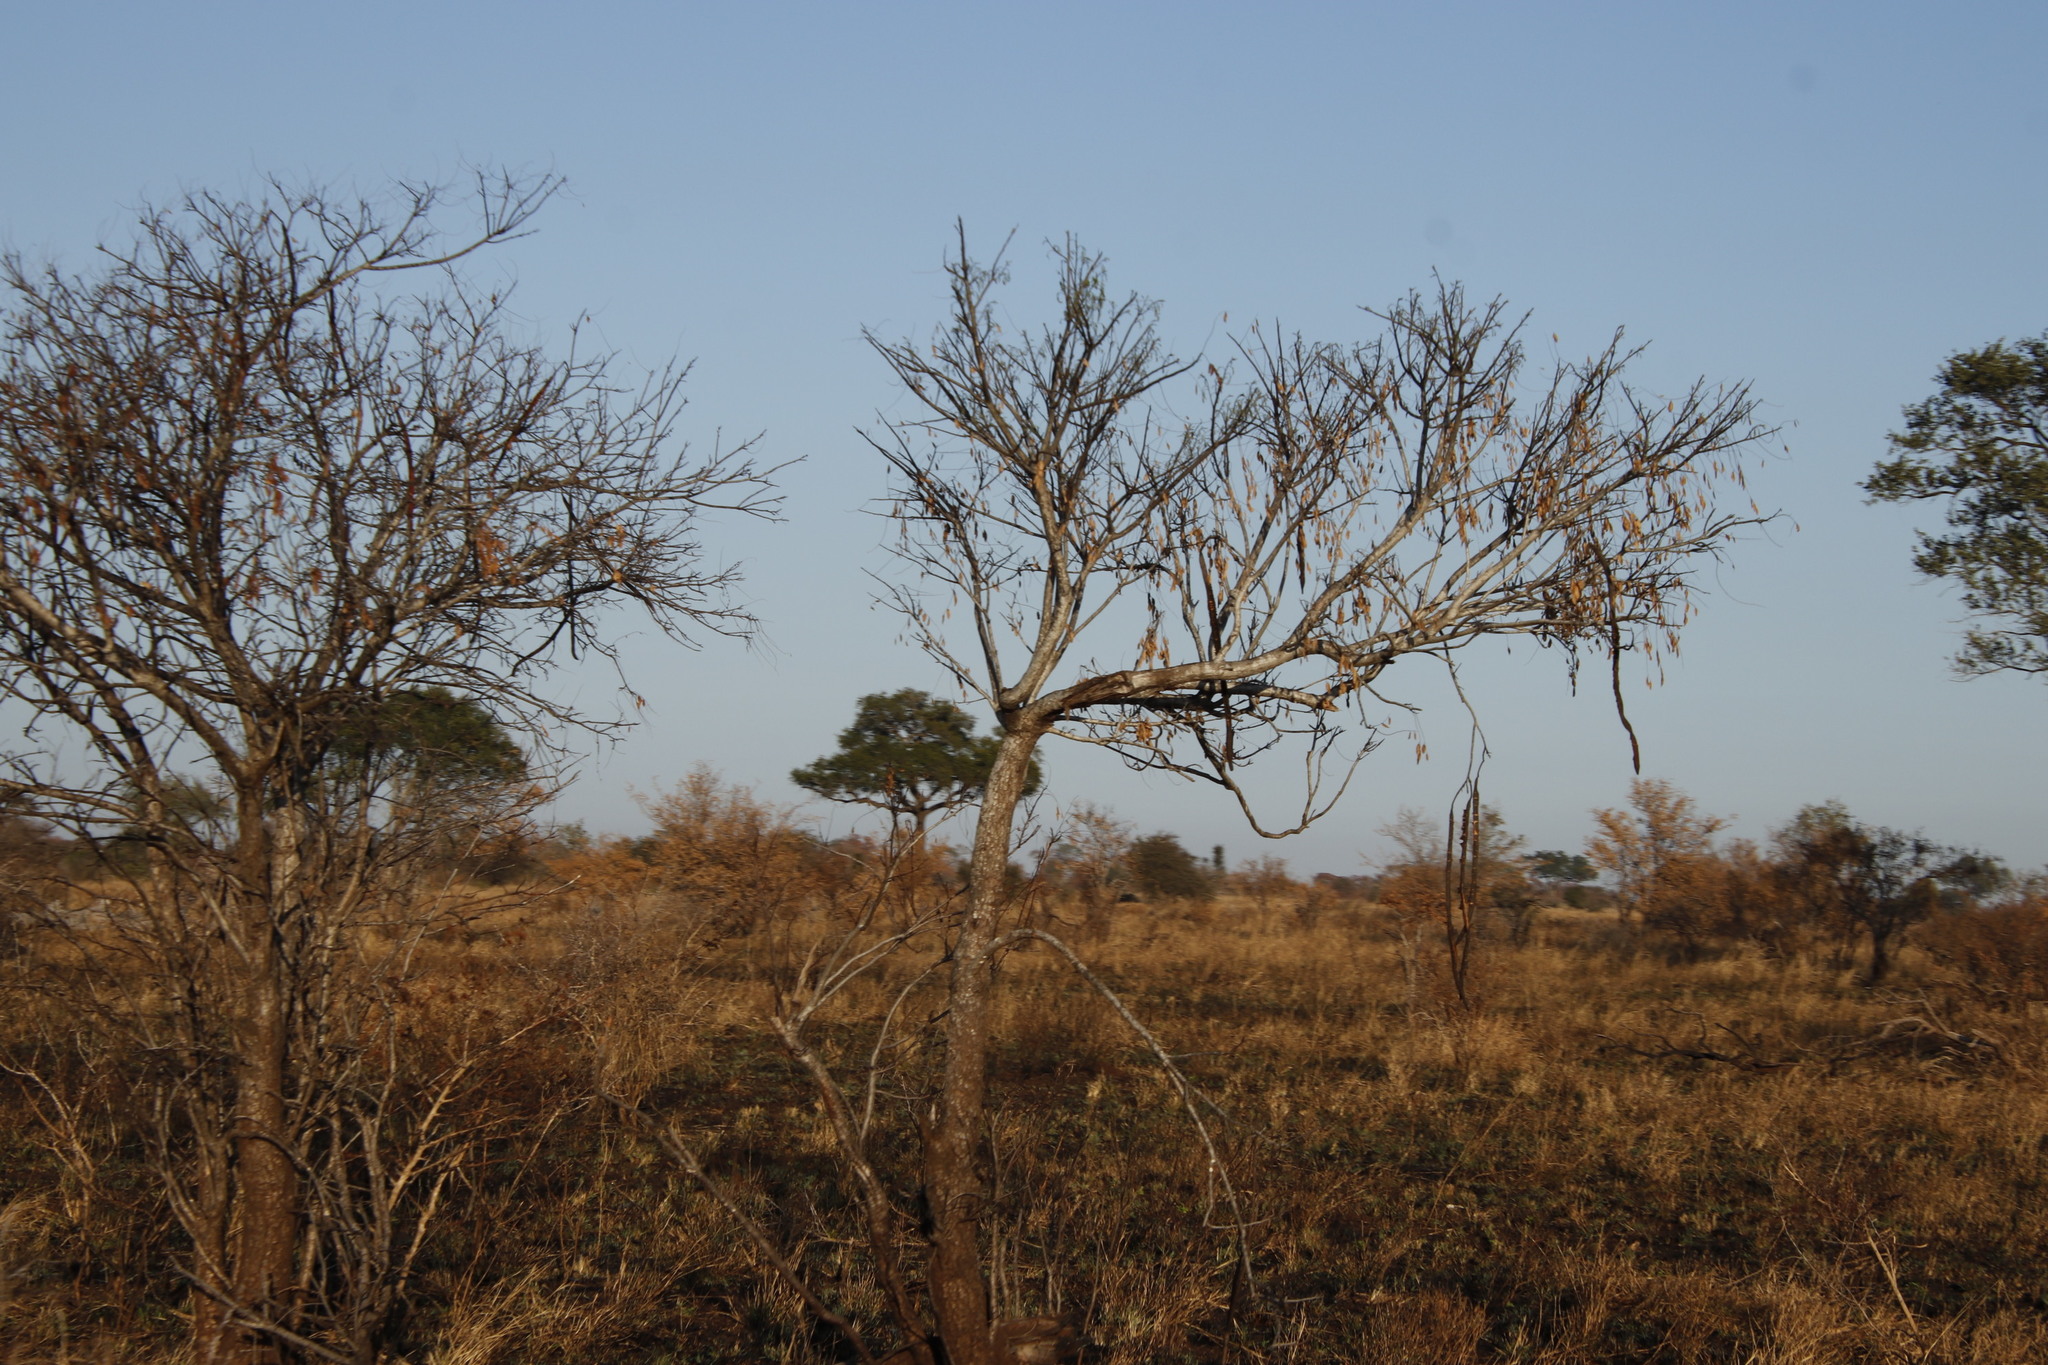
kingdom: Plantae
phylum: Tracheophyta
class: Magnoliopsida
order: Fabales
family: Fabaceae
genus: Cassia
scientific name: Cassia abbreviata
